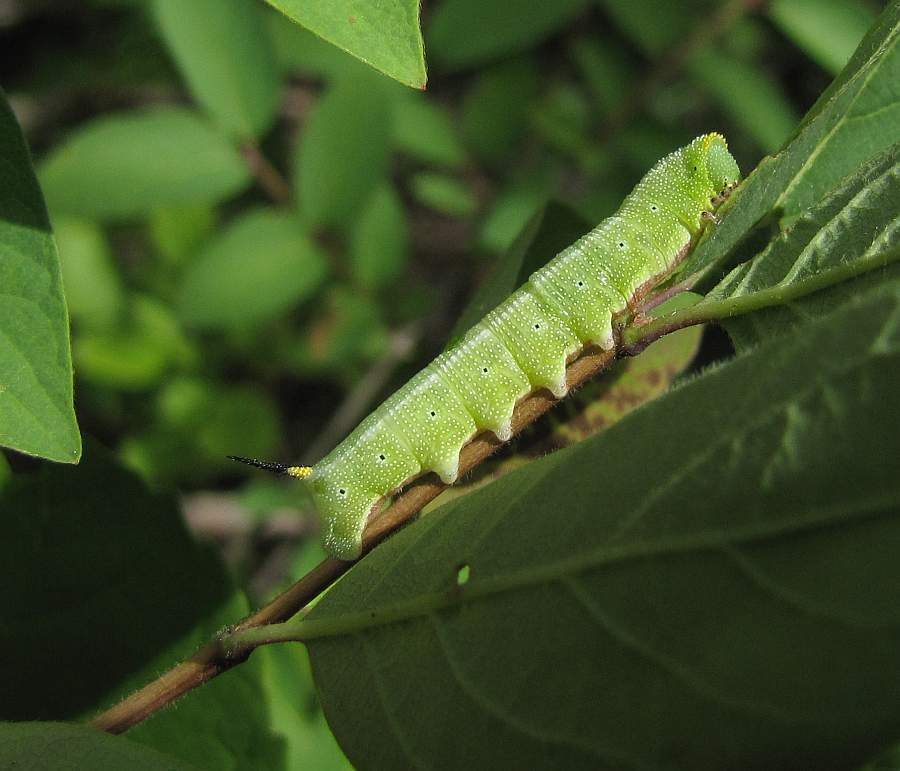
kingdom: Animalia
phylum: Arthropoda
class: Insecta
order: Lepidoptera
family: Sphingidae
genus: Hemaris
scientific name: Hemaris diffinis
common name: Bumblebee moth
